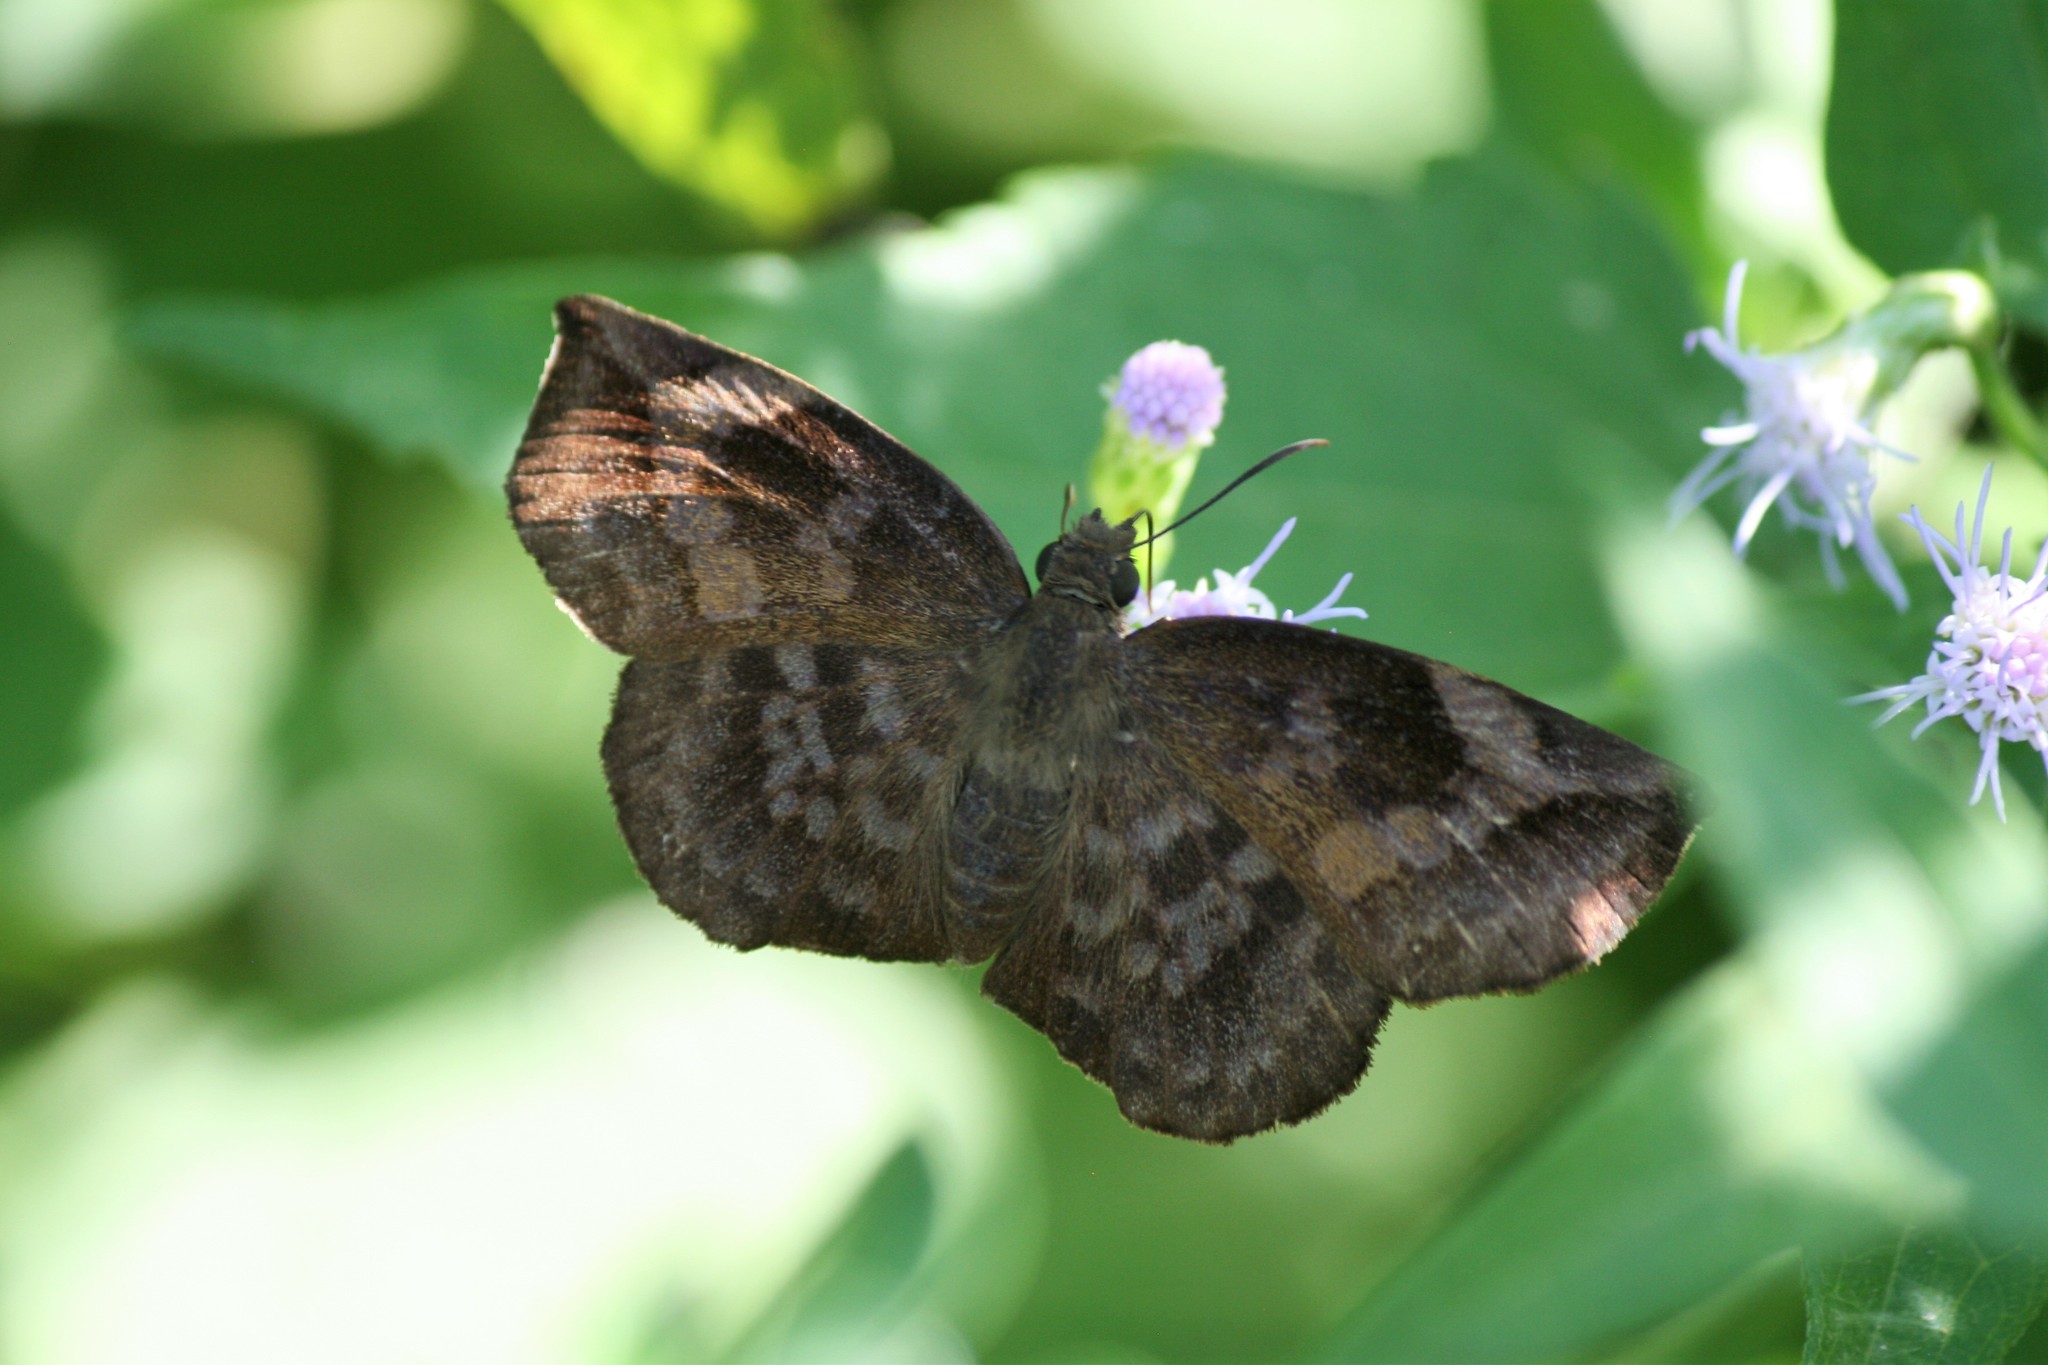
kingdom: Animalia
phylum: Arthropoda
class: Insecta
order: Lepidoptera
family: Hesperiidae
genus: Achlyodes
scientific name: Achlyodes thraso
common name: Sickle-winged skipper
